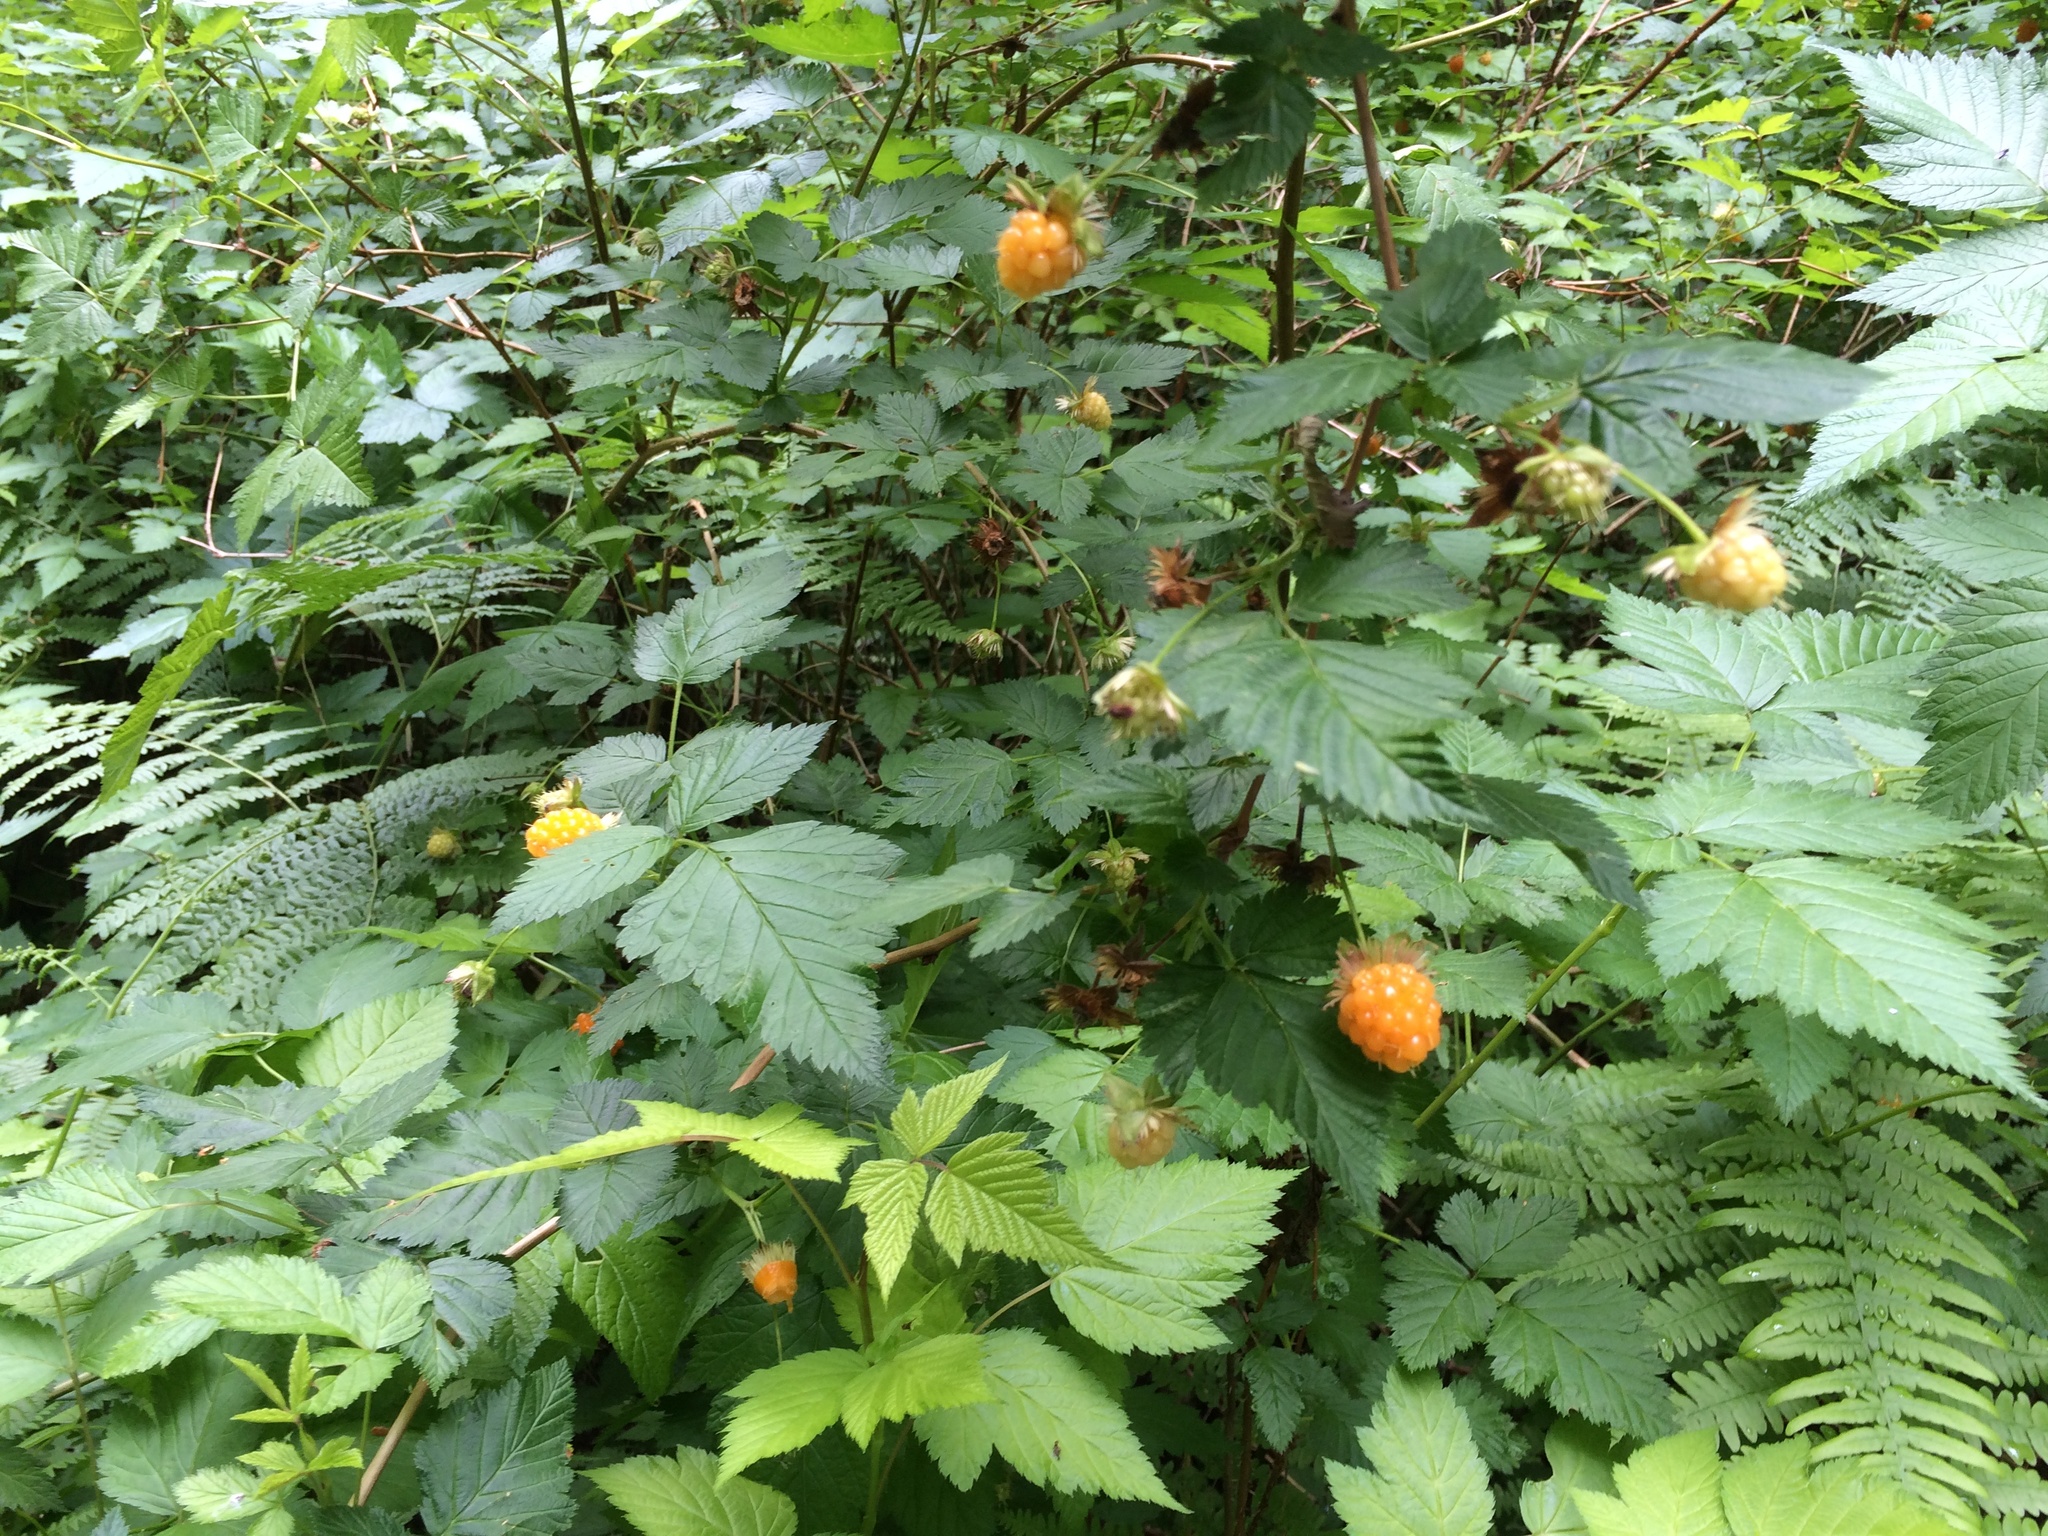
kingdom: Plantae
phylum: Tracheophyta
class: Magnoliopsida
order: Rosales
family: Rosaceae
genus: Rubus
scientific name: Rubus spectabilis
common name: Salmonberry
